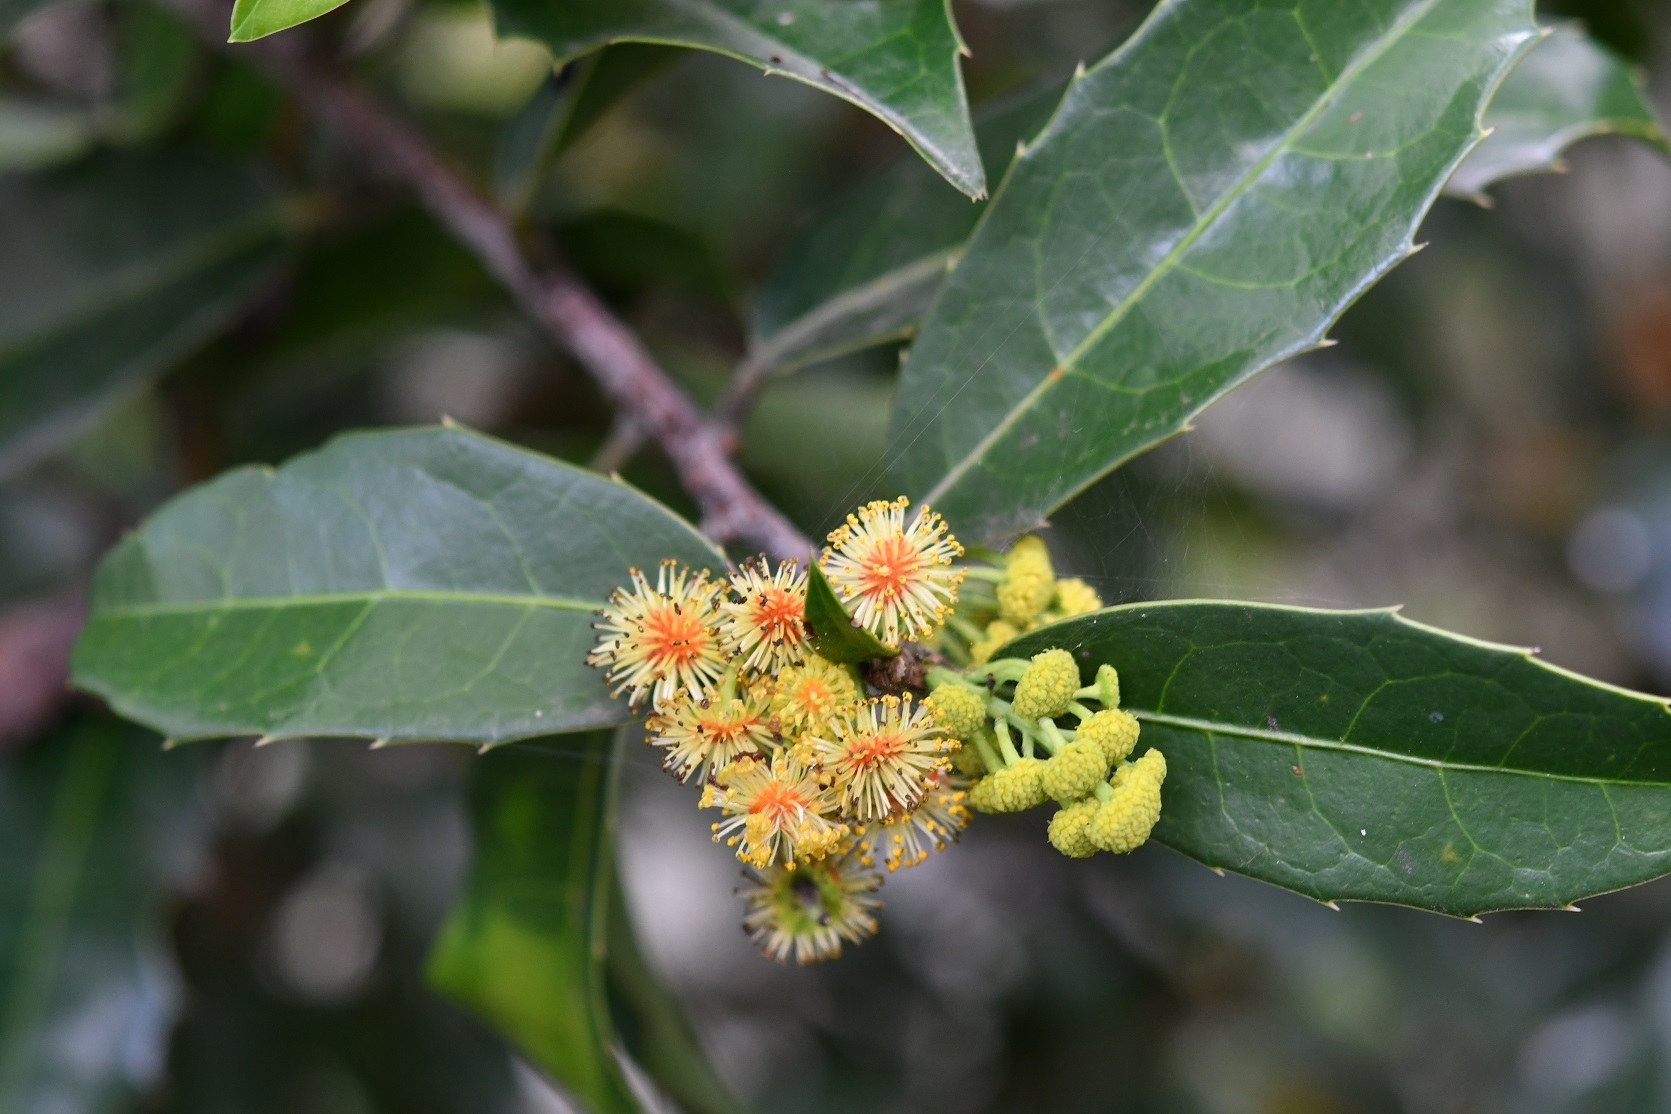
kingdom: Plantae
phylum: Tracheophyta
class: Magnoliopsida
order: Malpighiales
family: Salicaceae
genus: Olmediella
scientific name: Olmediella betschleriana
